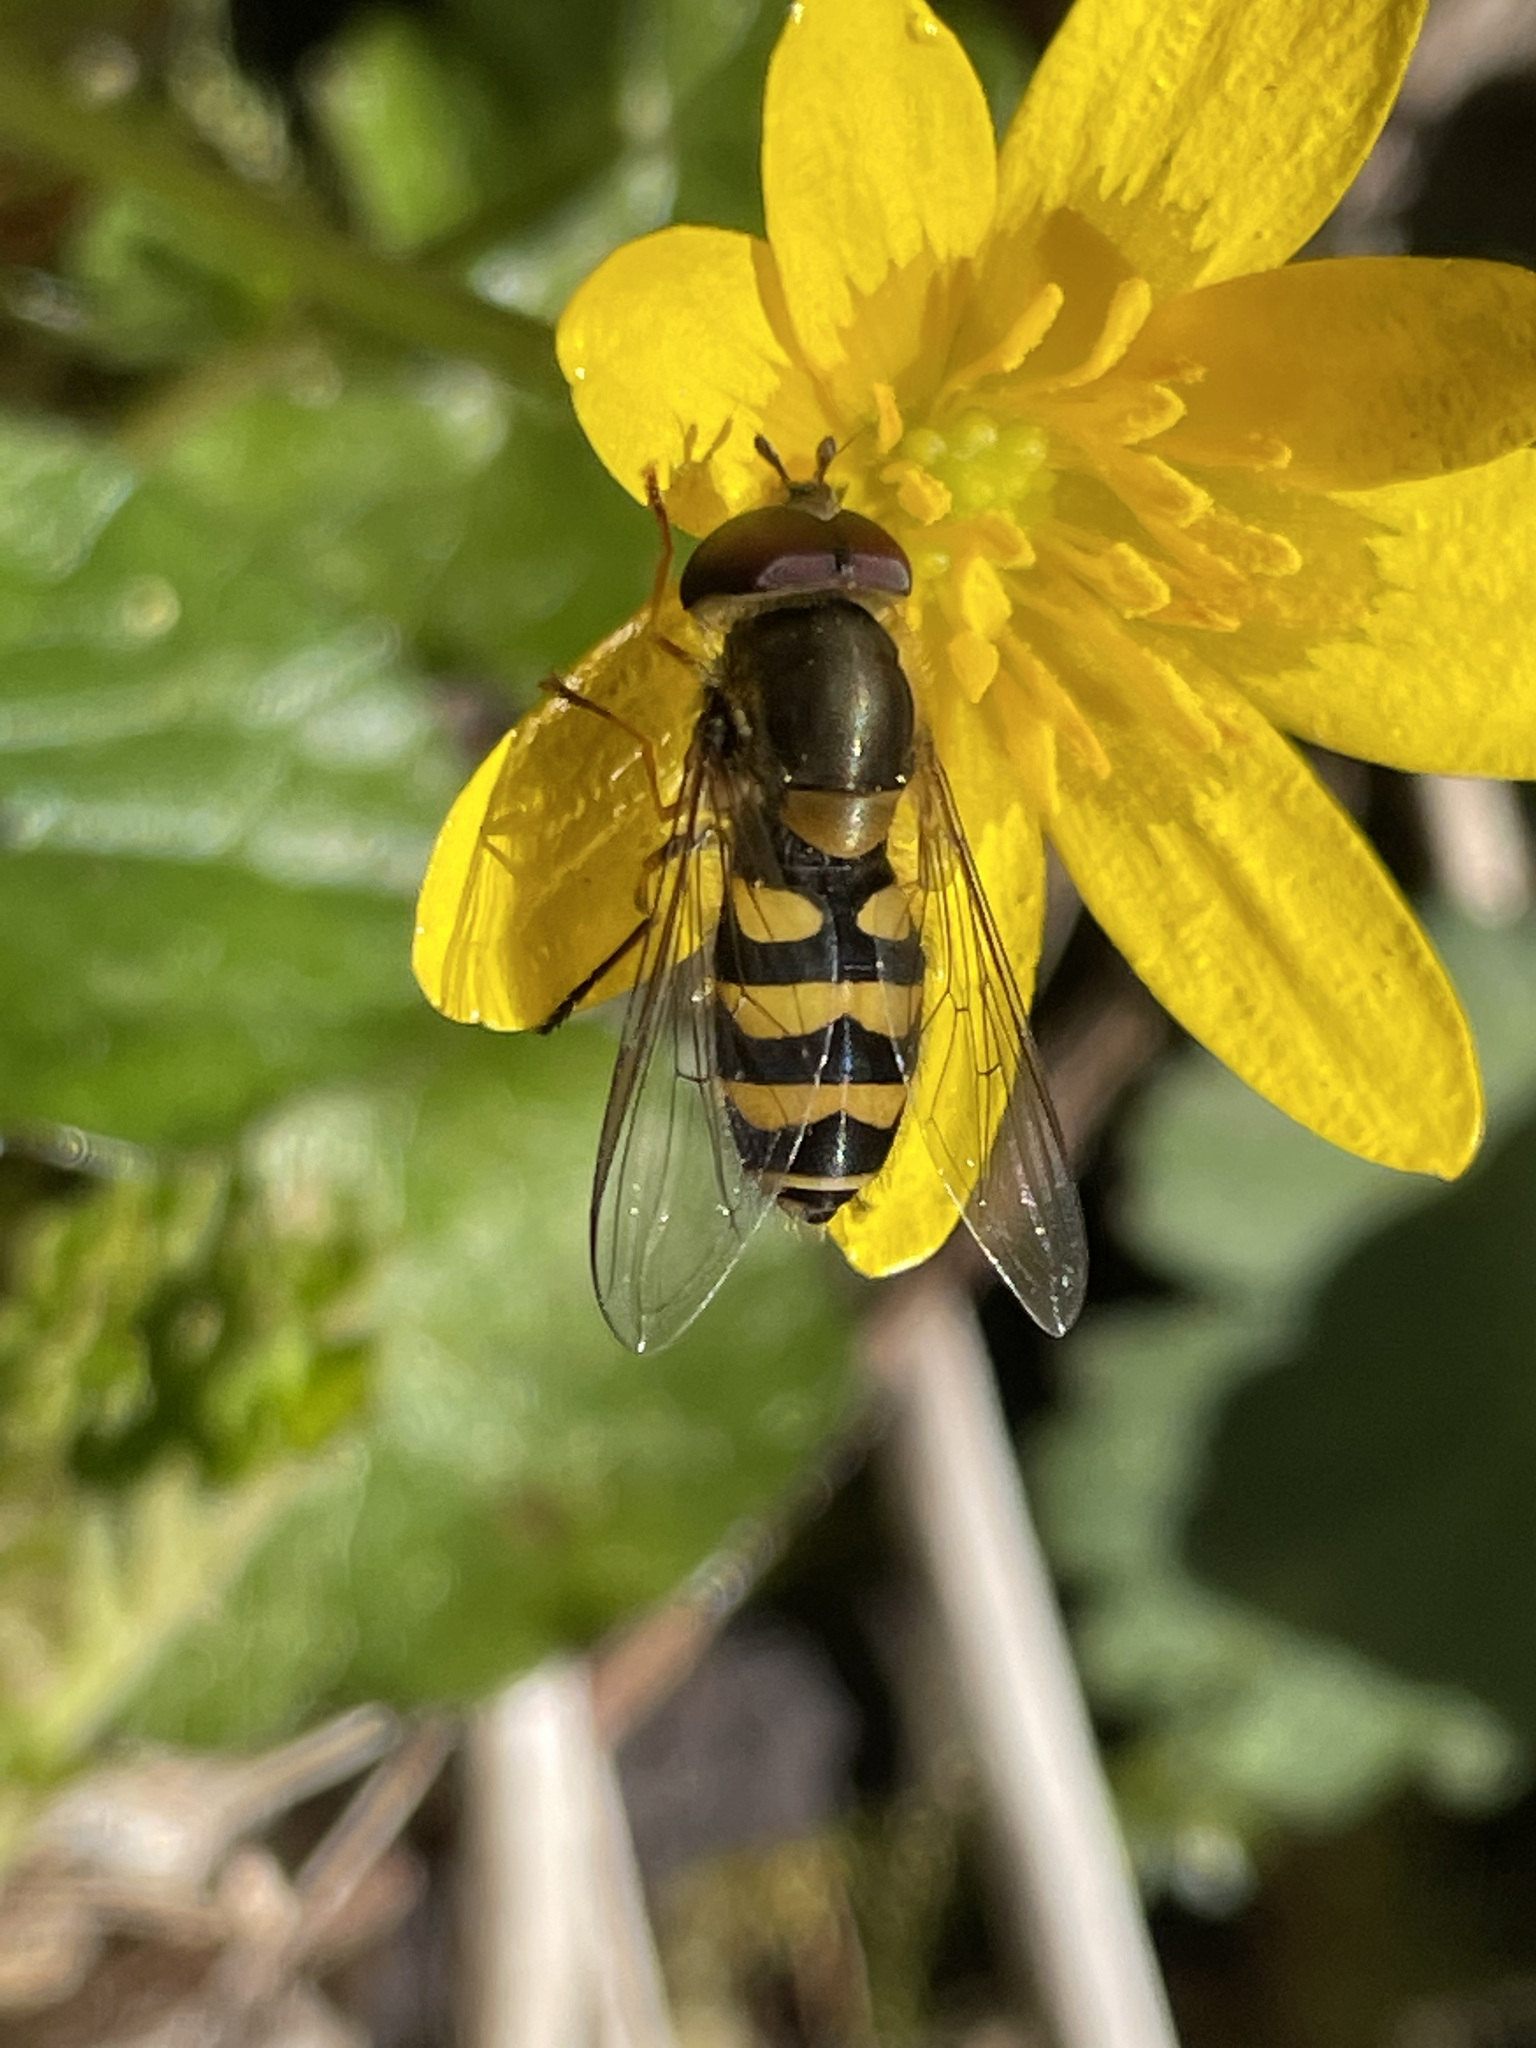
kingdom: Animalia
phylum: Arthropoda
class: Insecta
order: Diptera
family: Syrphidae
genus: Syrphus
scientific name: Syrphus
